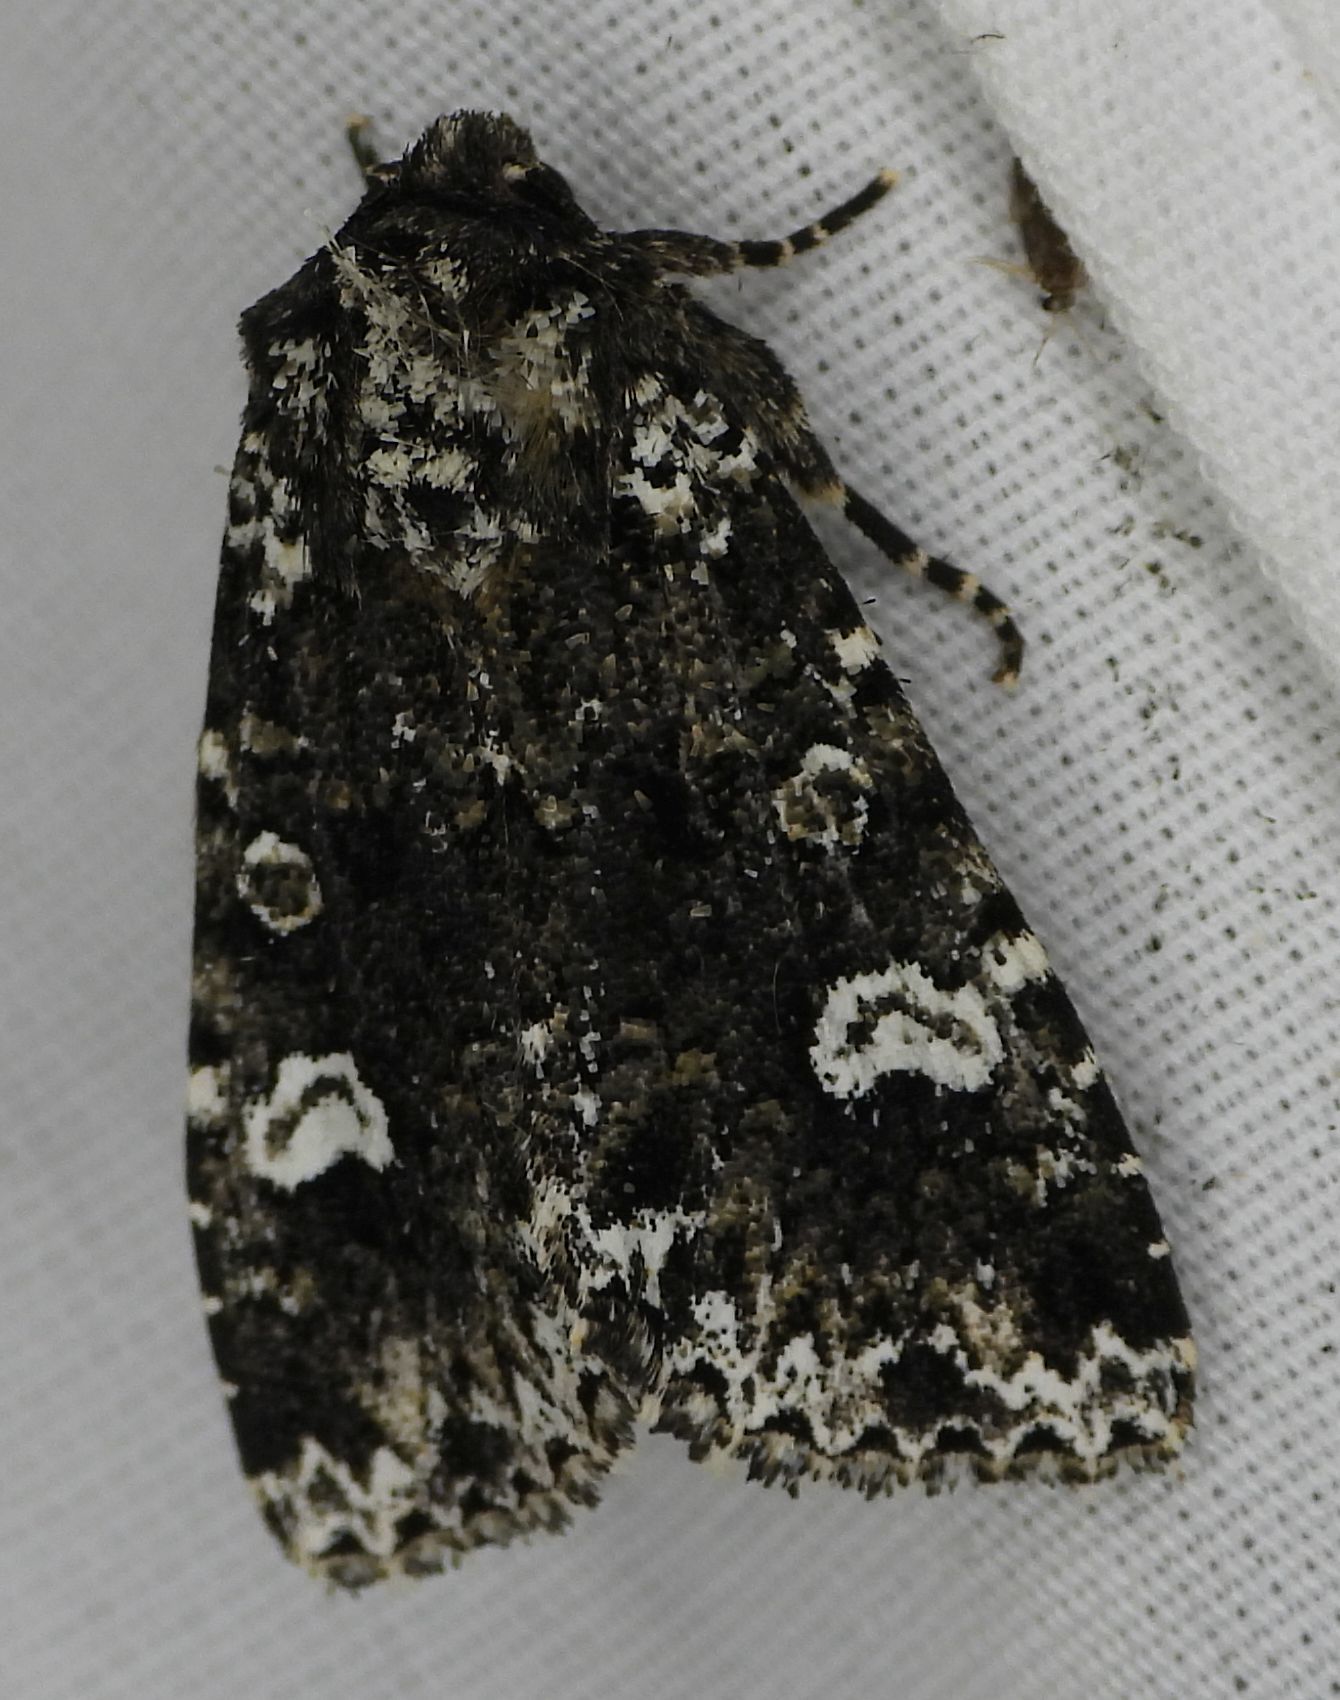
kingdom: Animalia
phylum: Arthropoda
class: Insecta
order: Lepidoptera
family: Noctuidae
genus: Melanchra
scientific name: Melanchra adjuncta
